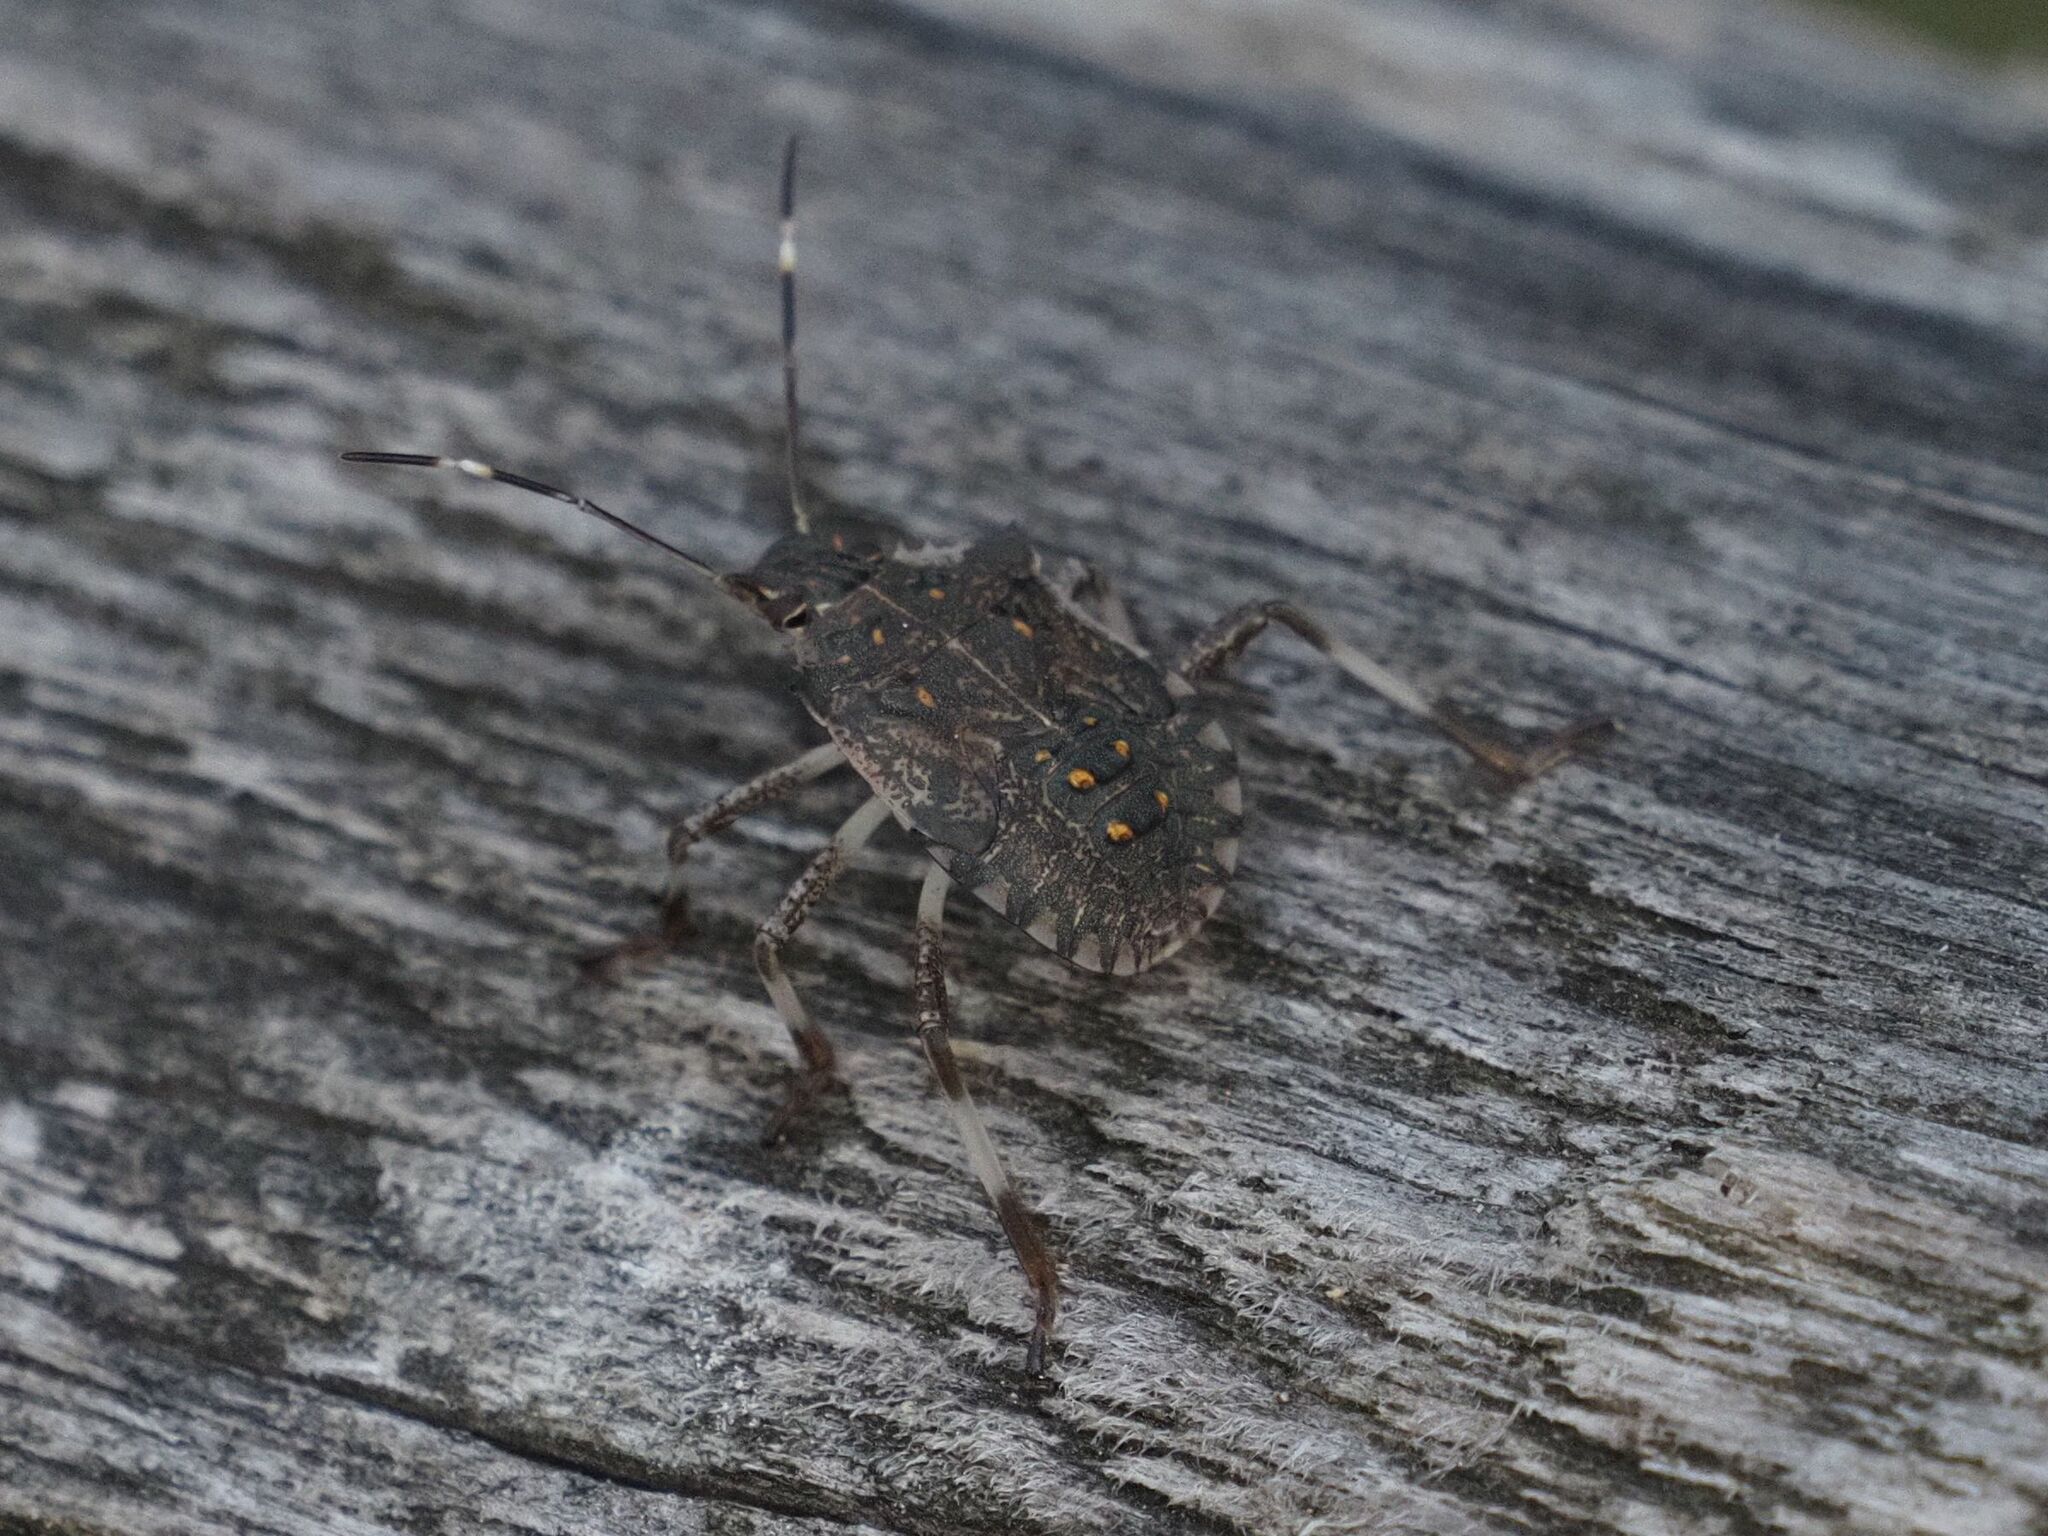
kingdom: Animalia
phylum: Arthropoda
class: Insecta
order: Hemiptera
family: Pentatomidae
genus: Halyomorpha
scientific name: Halyomorpha halys
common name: Brown marmorated stink bug
